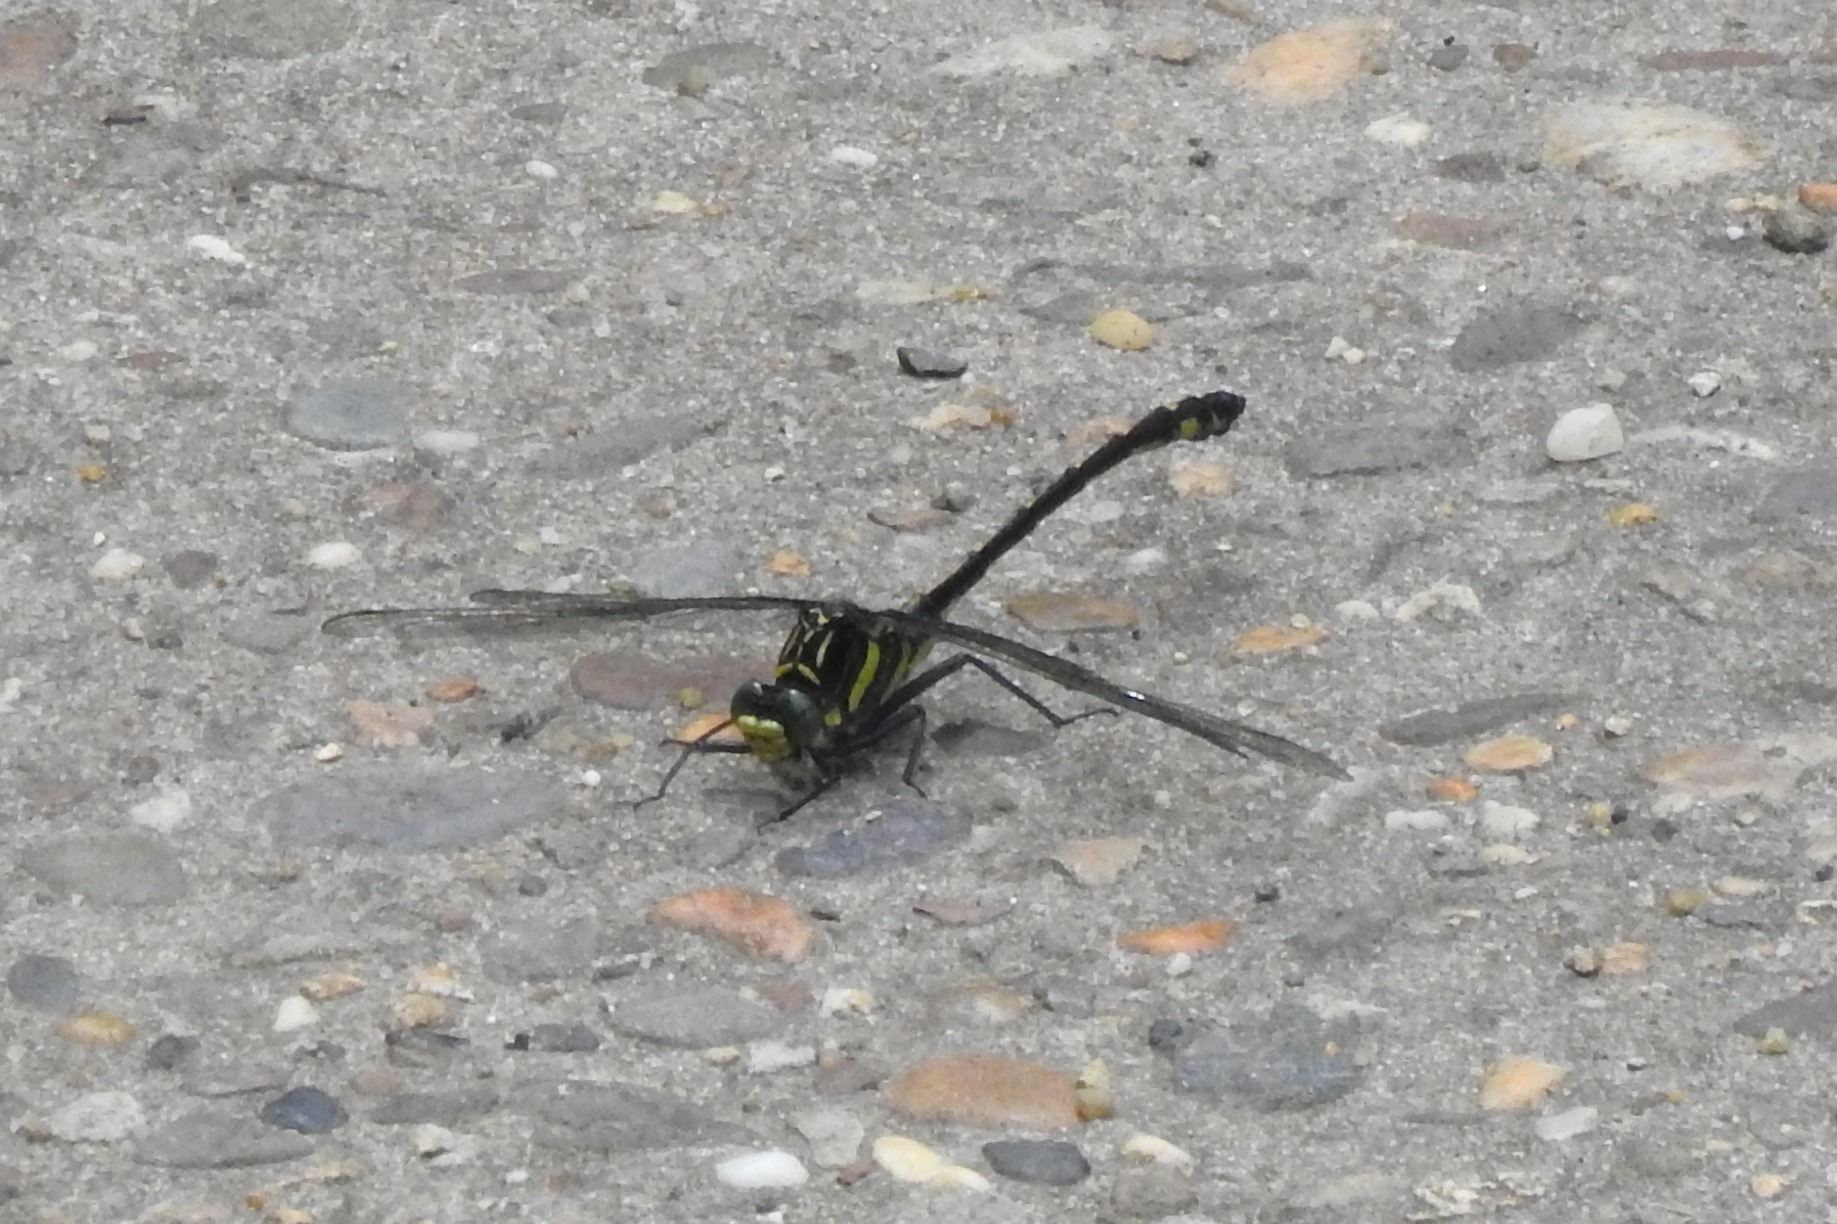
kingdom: Animalia
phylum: Arthropoda
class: Insecta
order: Odonata
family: Gomphidae
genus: Hagenius
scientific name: Hagenius brevistylus
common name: Dragonhunter
